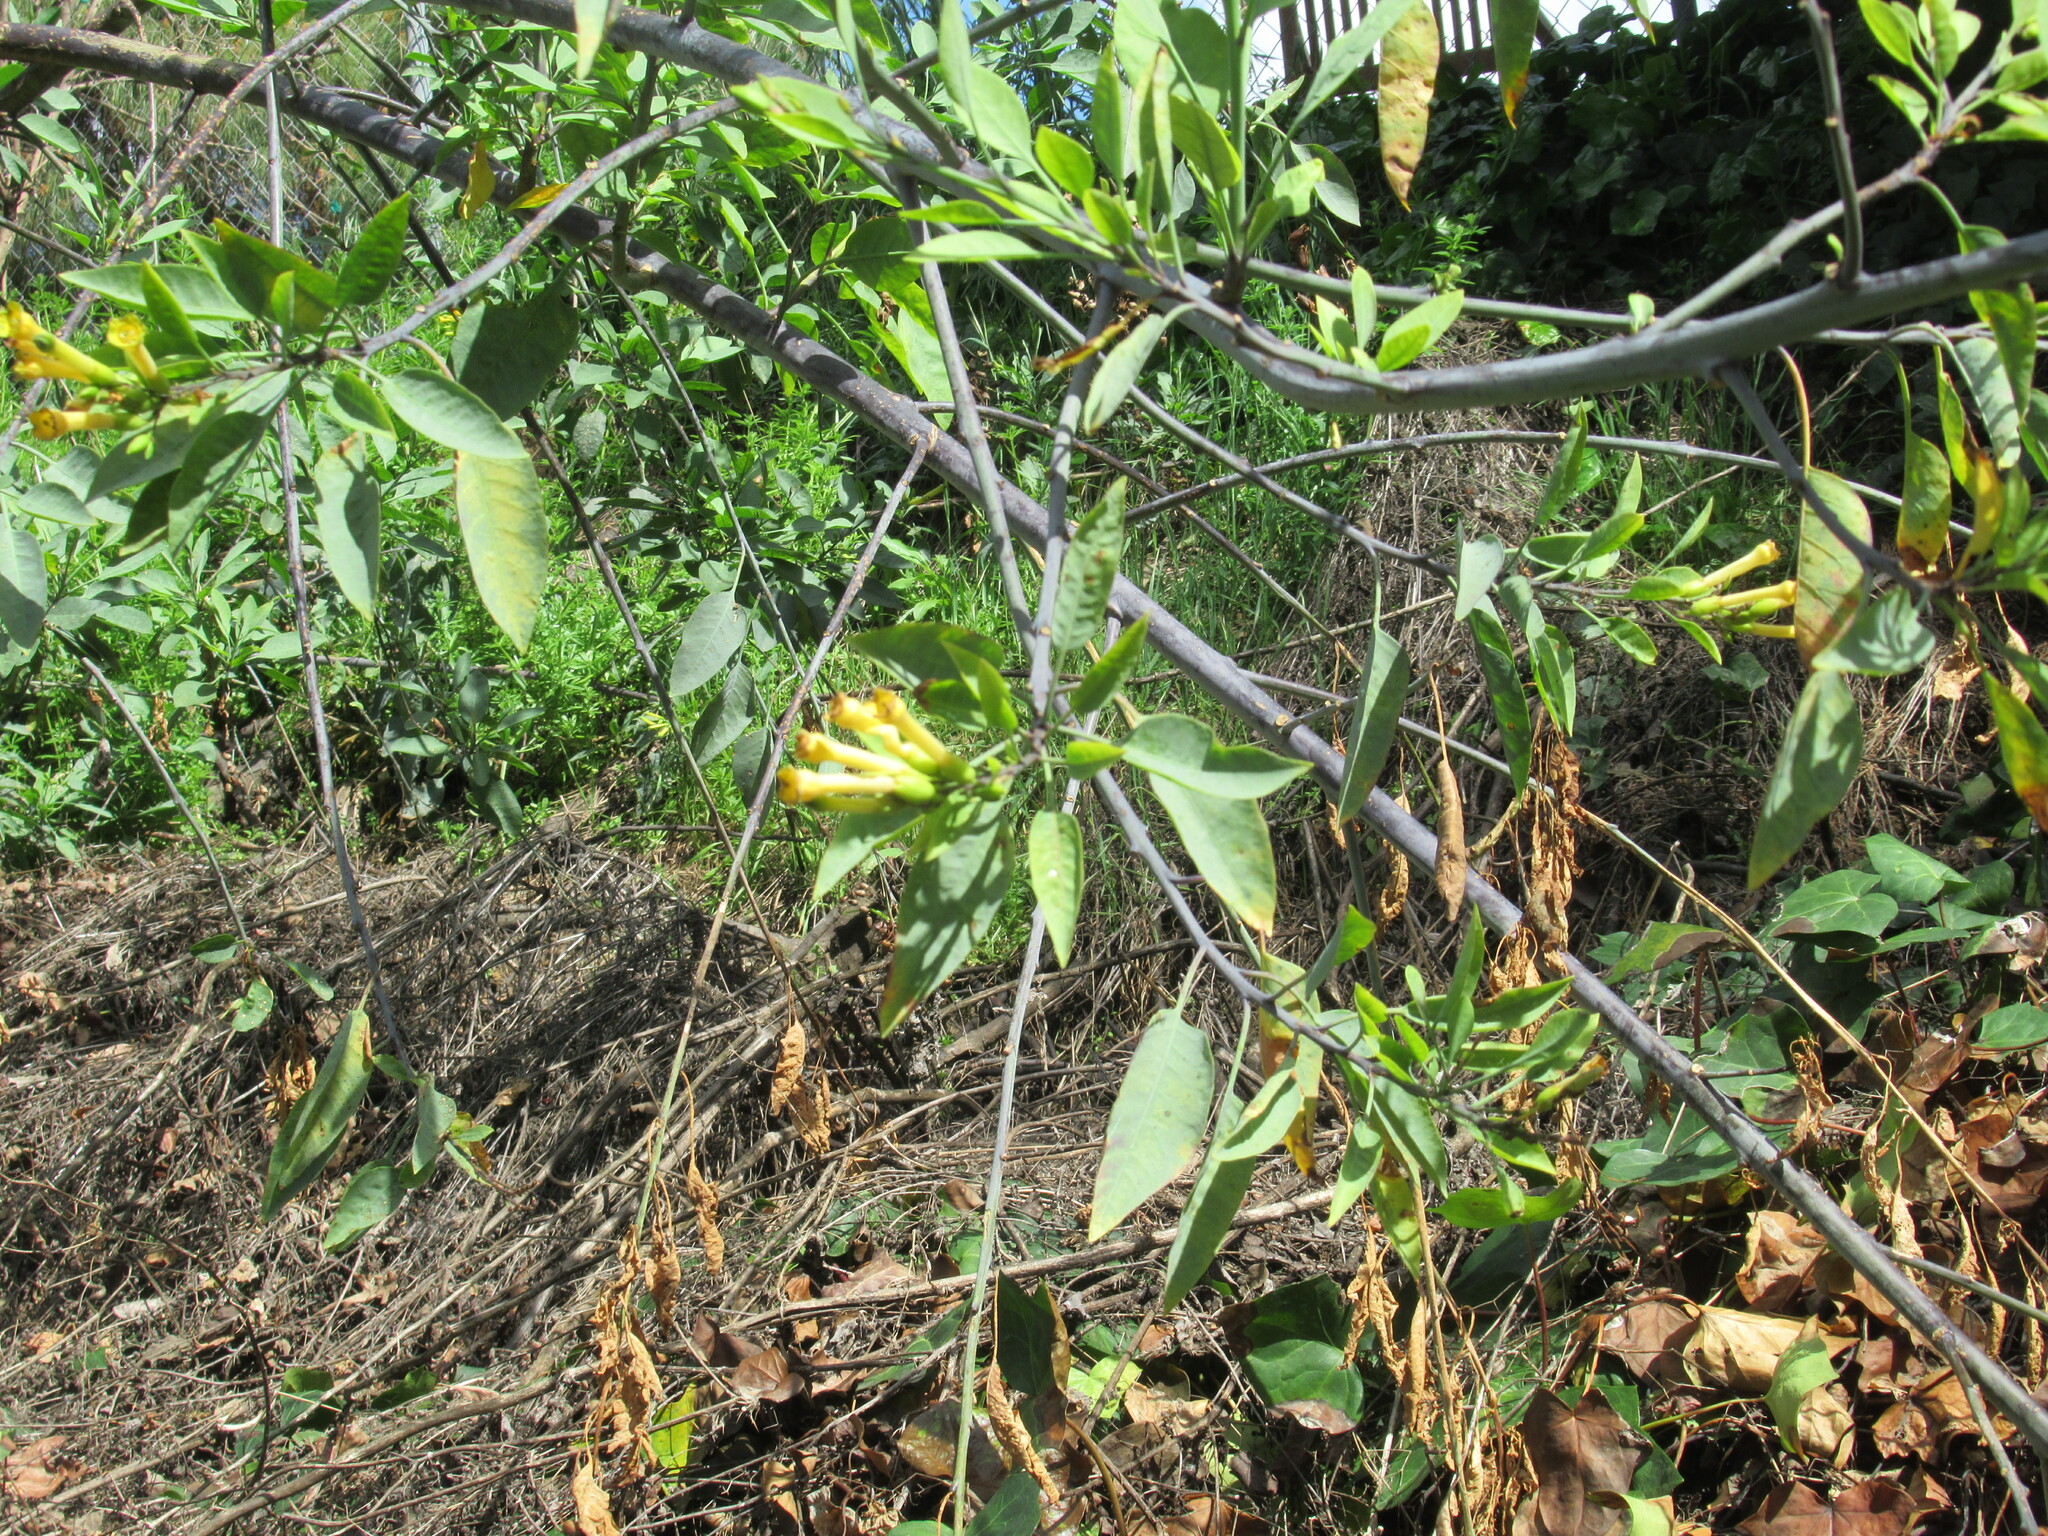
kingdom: Plantae
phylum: Tracheophyta
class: Magnoliopsida
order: Solanales
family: Solanaceae
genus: Nicotiana
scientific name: Nicotiana glauca
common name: Tree tobacco
